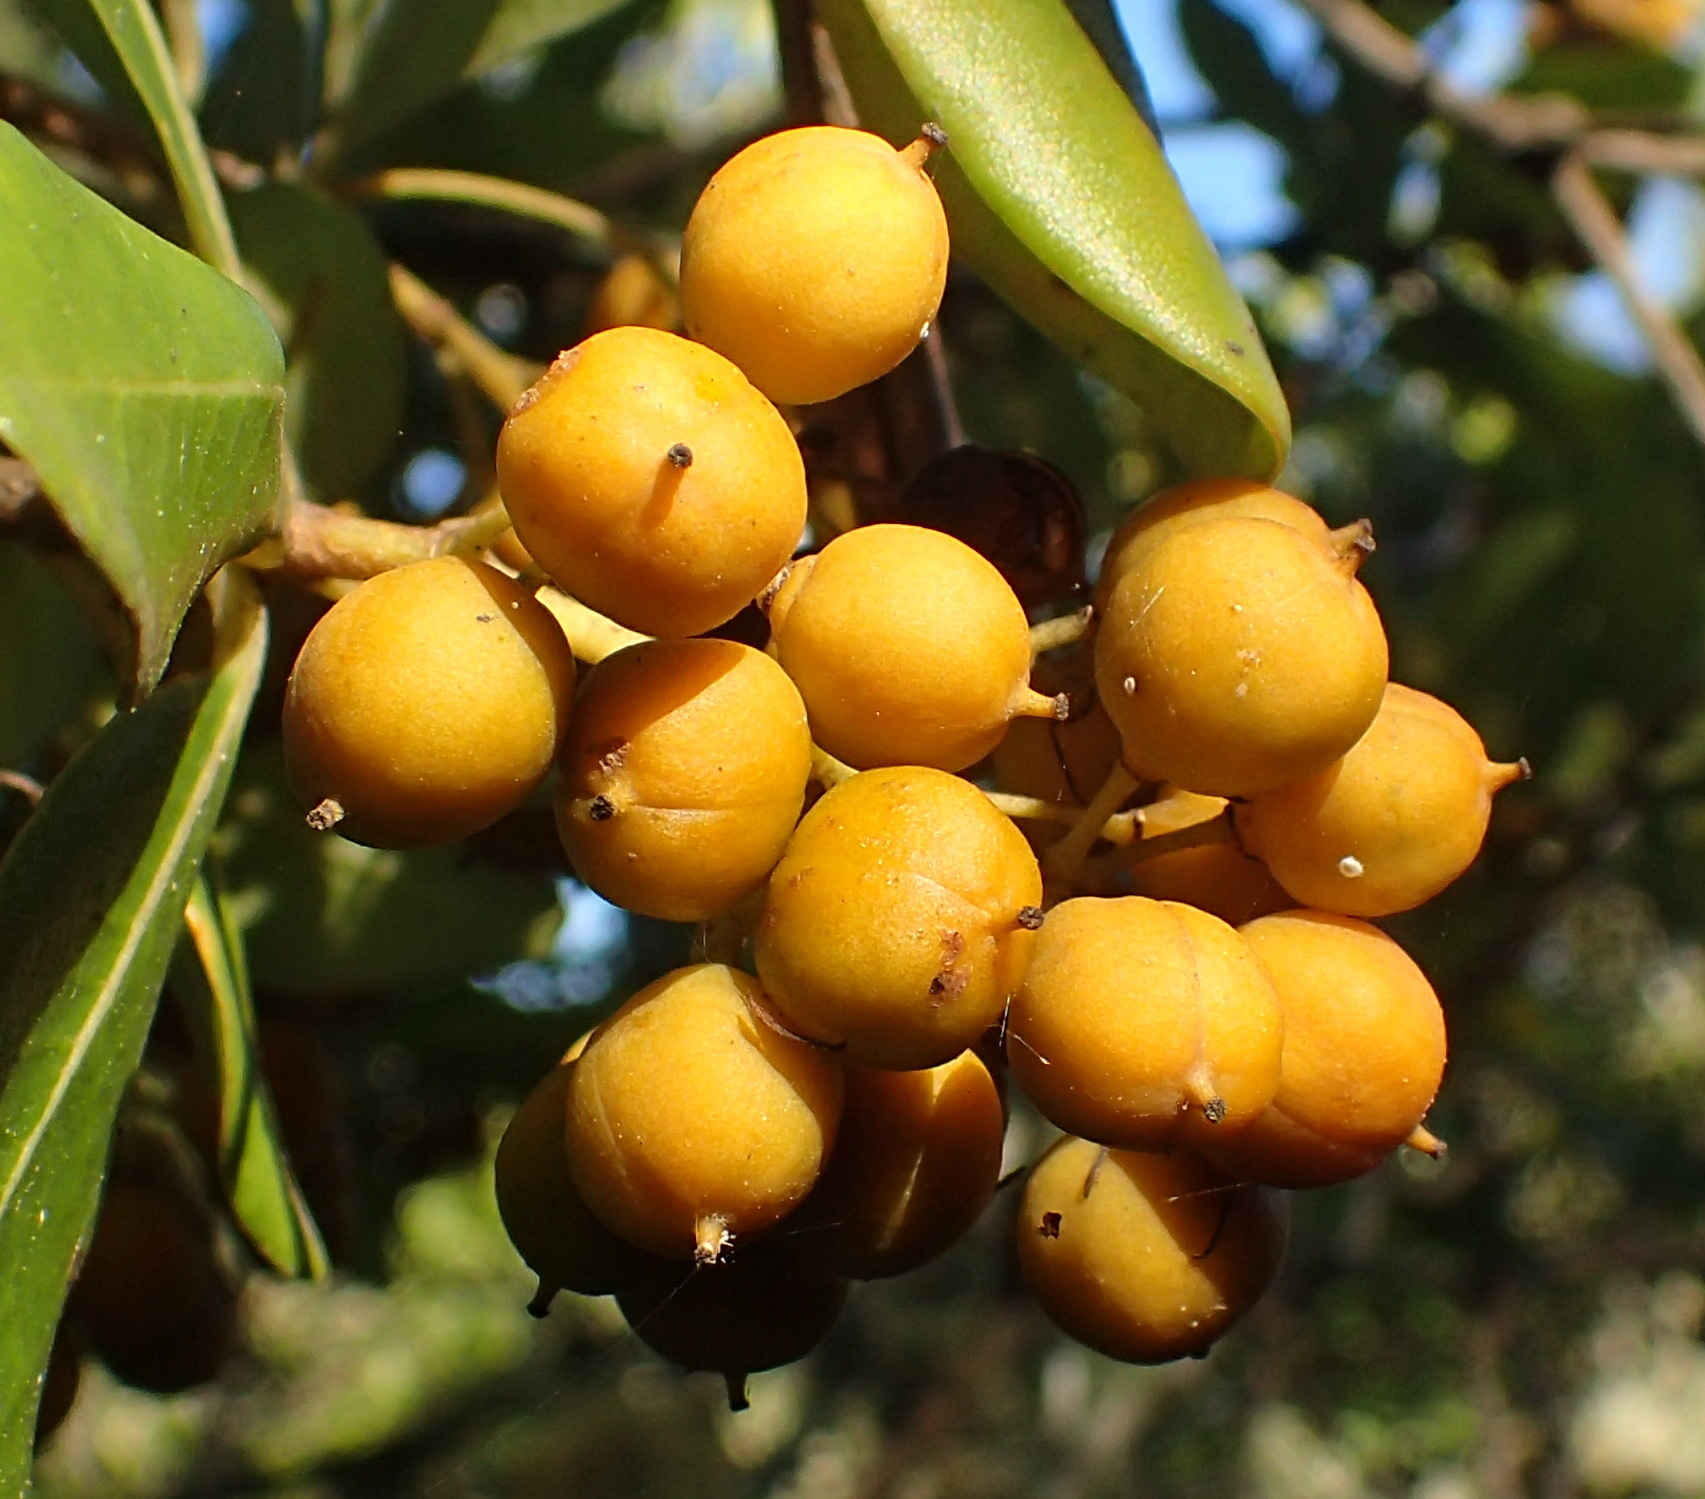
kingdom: Plantae
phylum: Tracheophyta
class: Magnoliopsida
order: Apiales
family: Pittosporaceae
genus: Pittosporum
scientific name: Pittosporum viridiflorum
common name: Cape cheesewood
